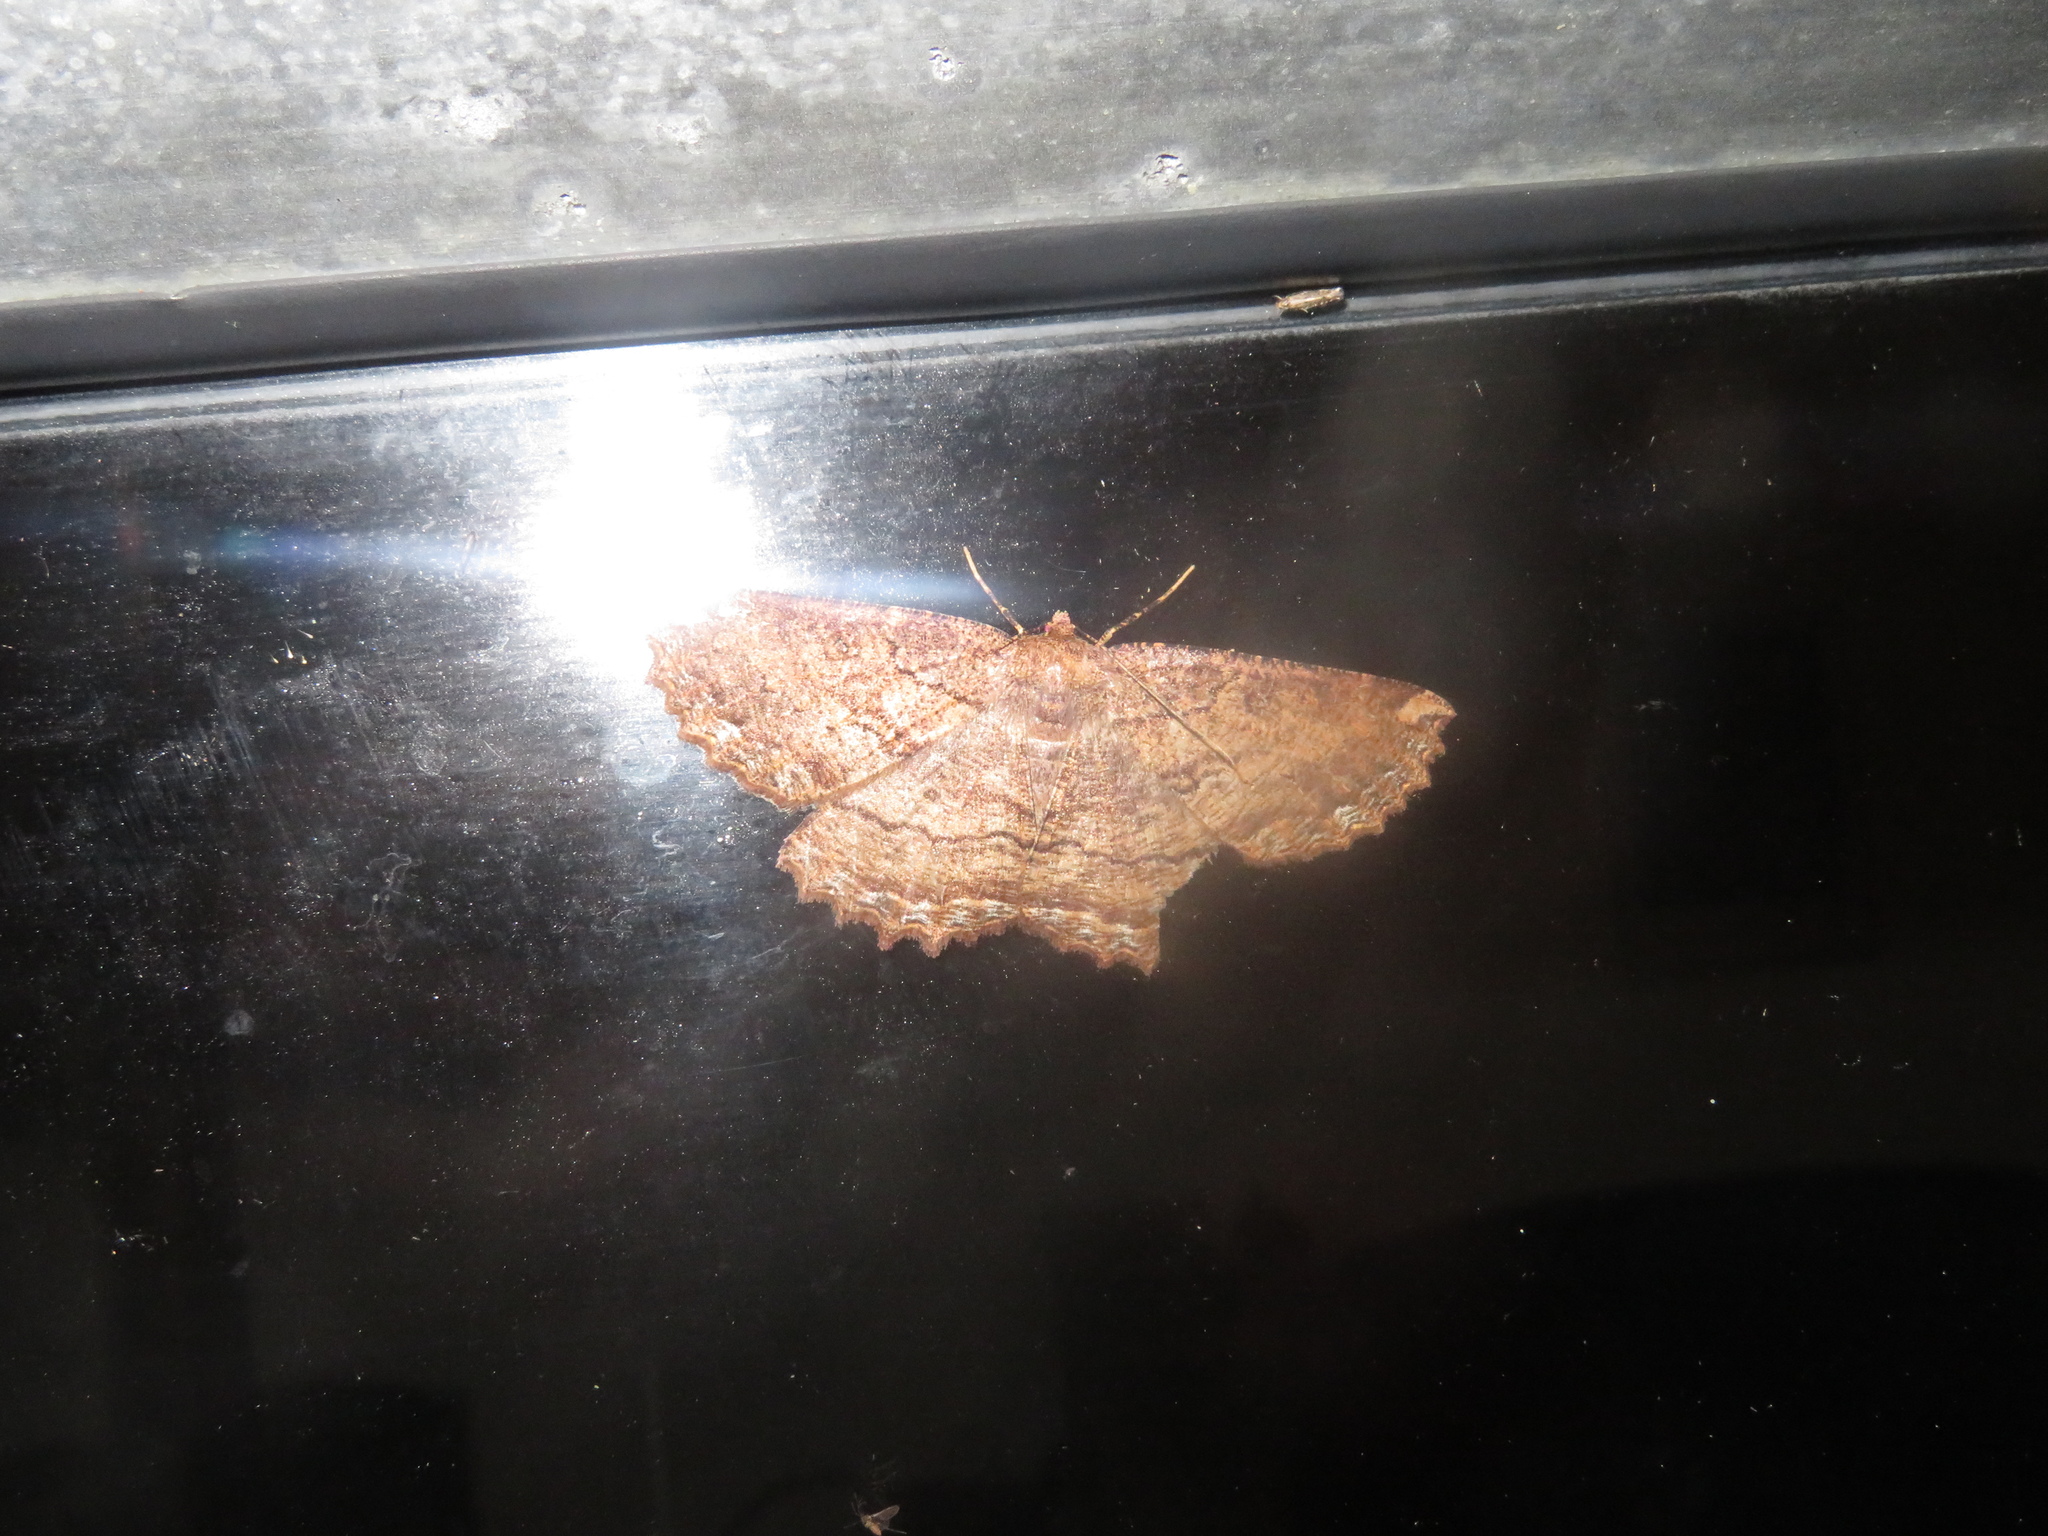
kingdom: Animalia
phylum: Arthropoda
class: Insecta
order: Lepidoptera
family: Geometridae
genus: Gellonia
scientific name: Gellonia dejectaria
